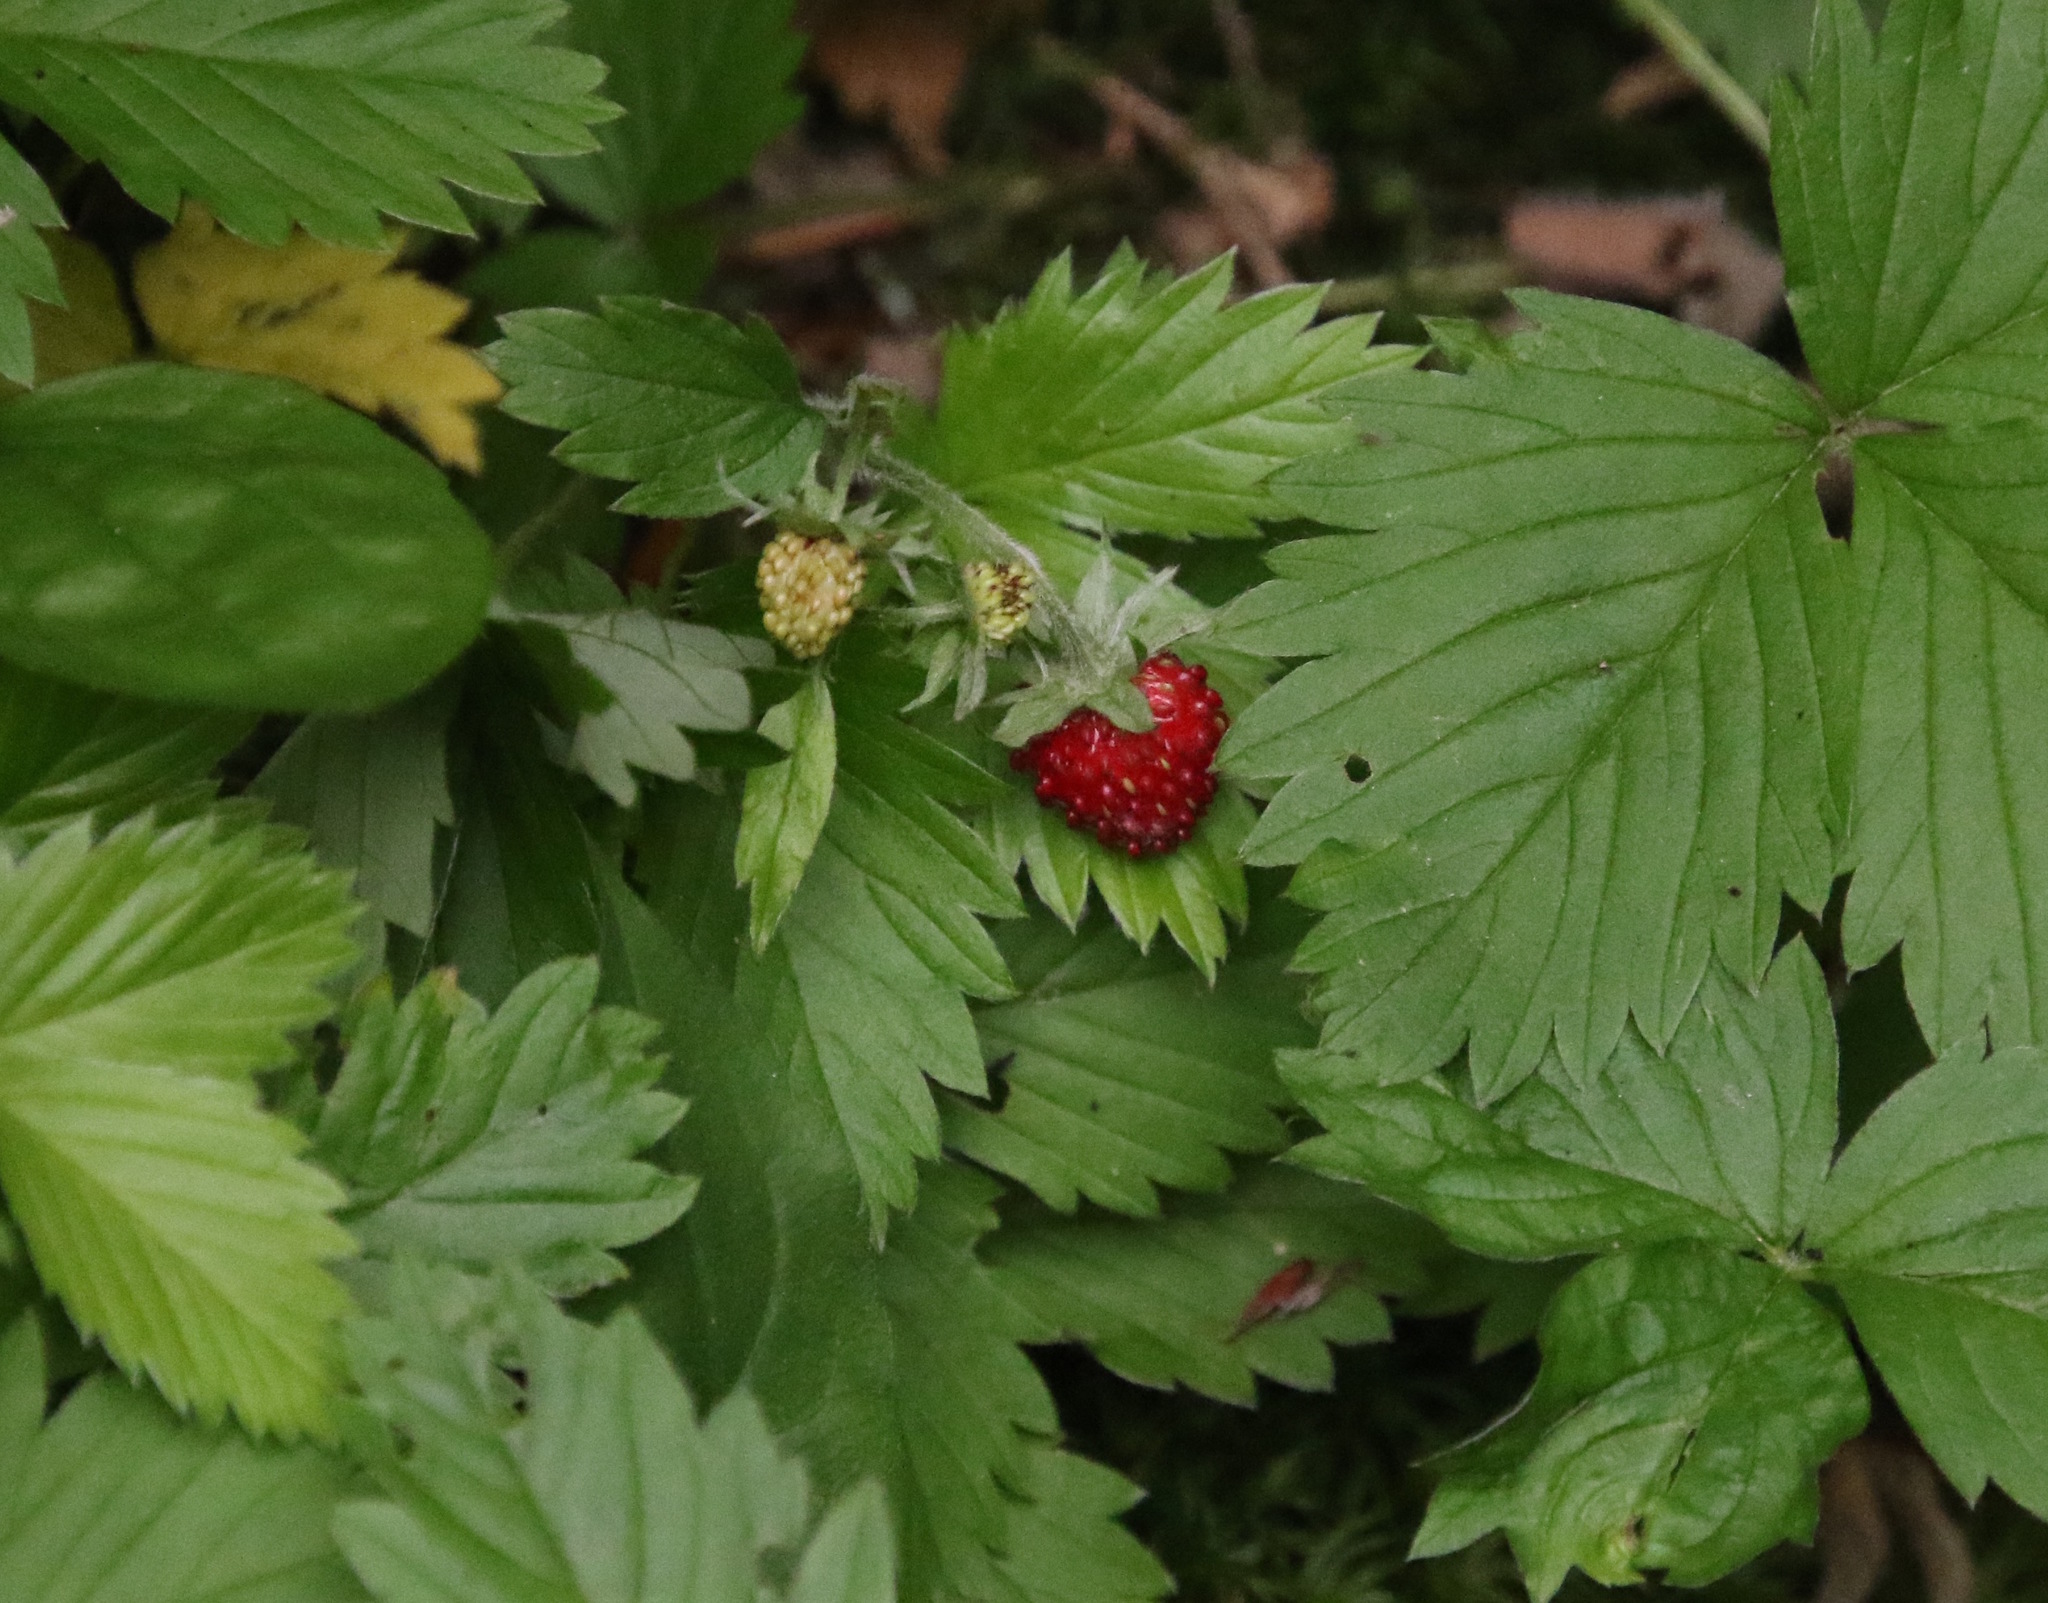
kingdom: Plantae
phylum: Tracheophyta
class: Magnoliopsida
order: Rosales
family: Rosaceae
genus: Fragaria
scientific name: Fragaria vesca
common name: Wild strawberry
